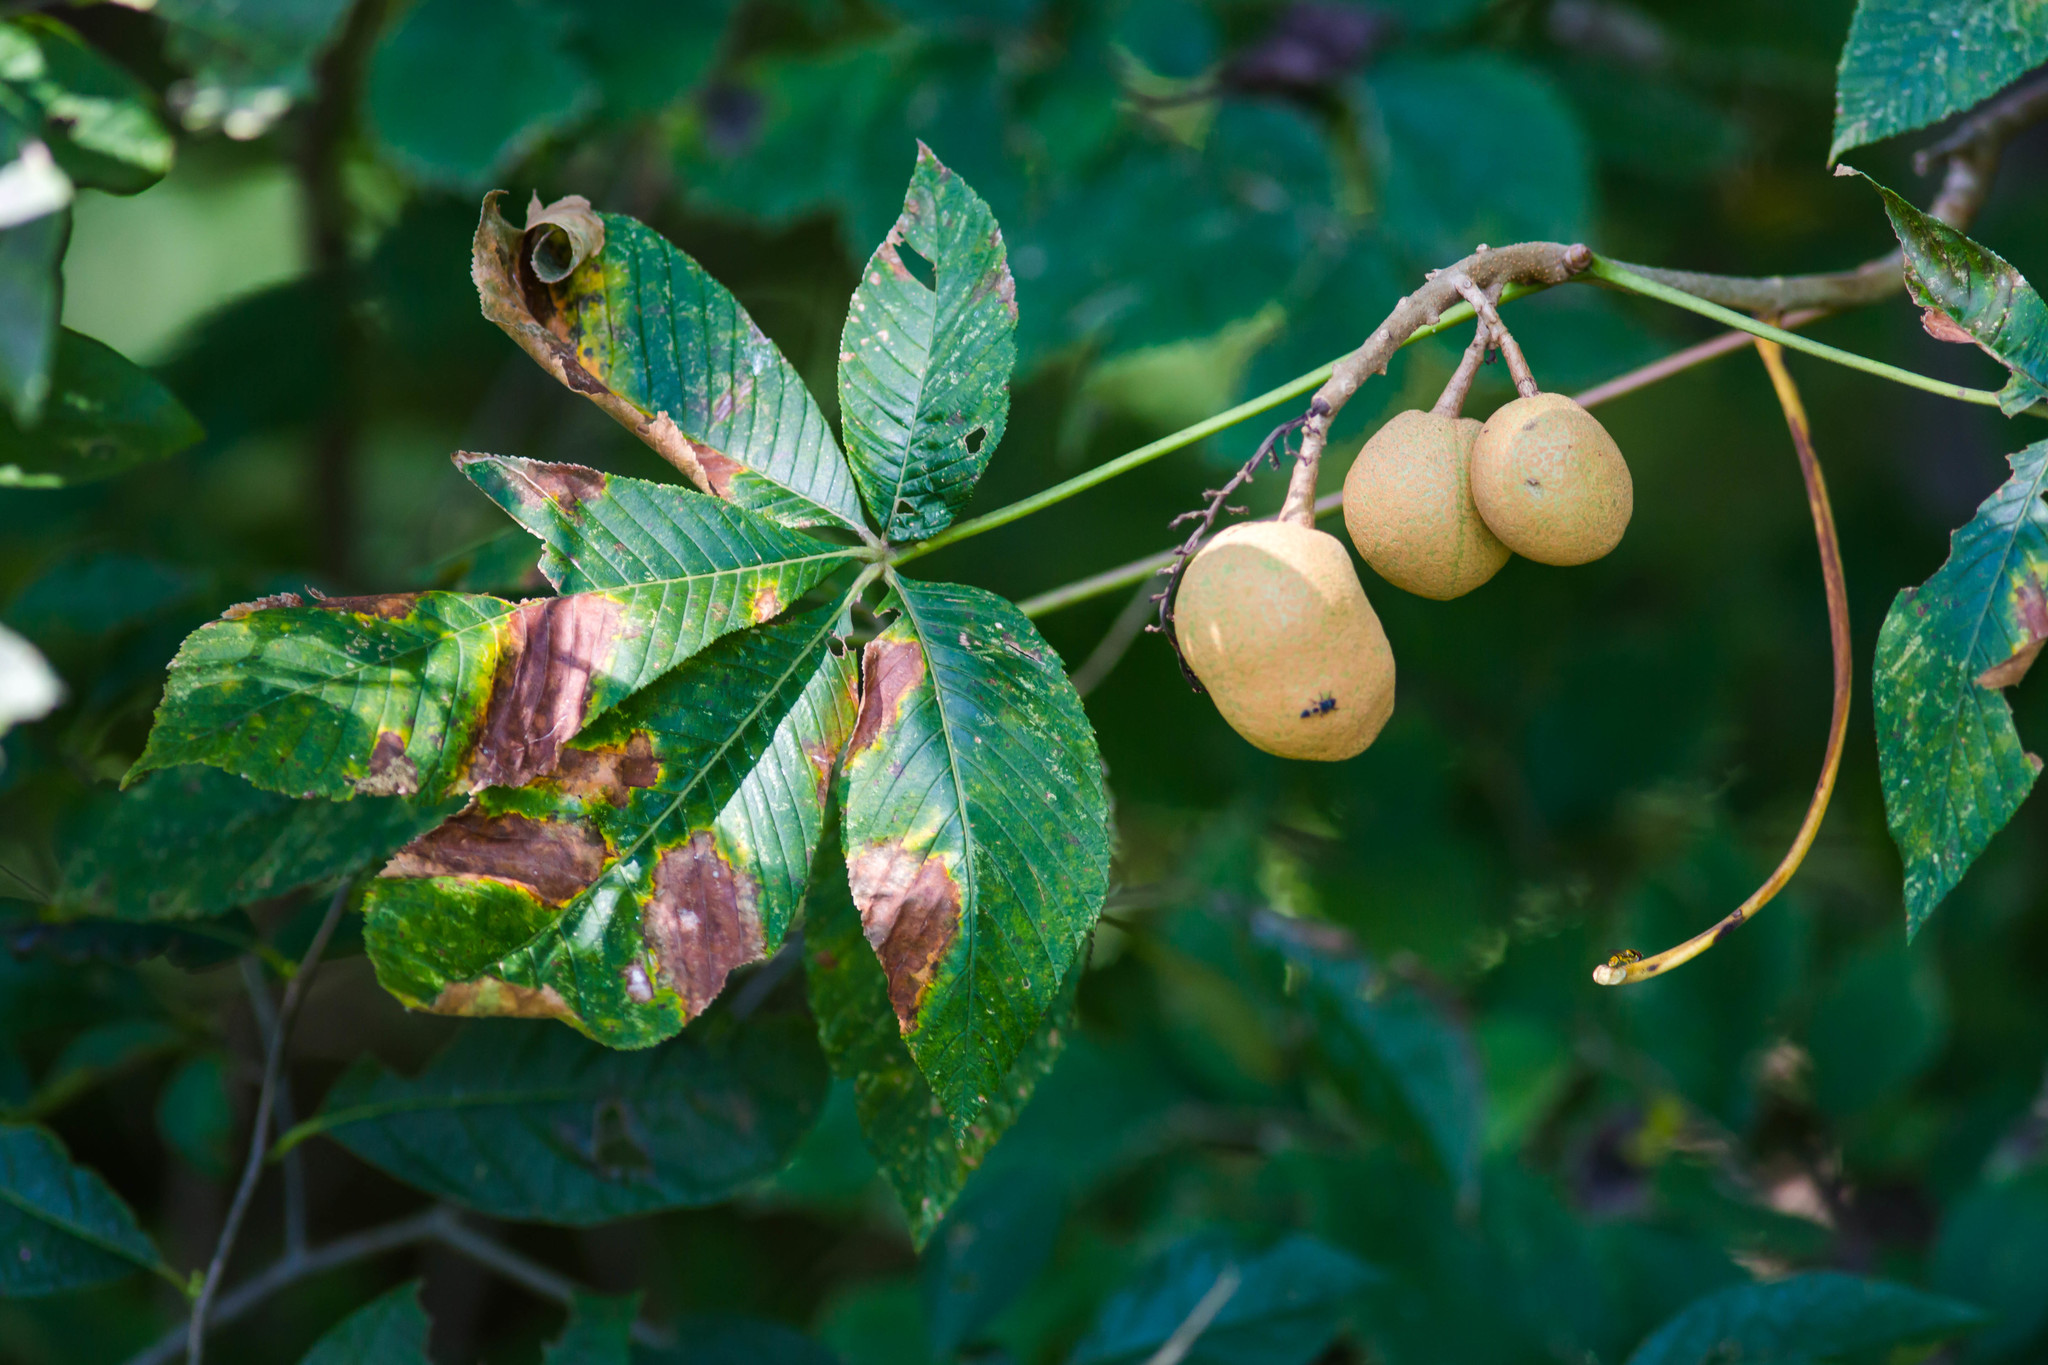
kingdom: Plantae
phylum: Tracheophyta
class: Magnoliopsida
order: Sapindales
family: Sapindaceae
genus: Aesculus
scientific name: Aesculus pavia
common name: Red buckeye
